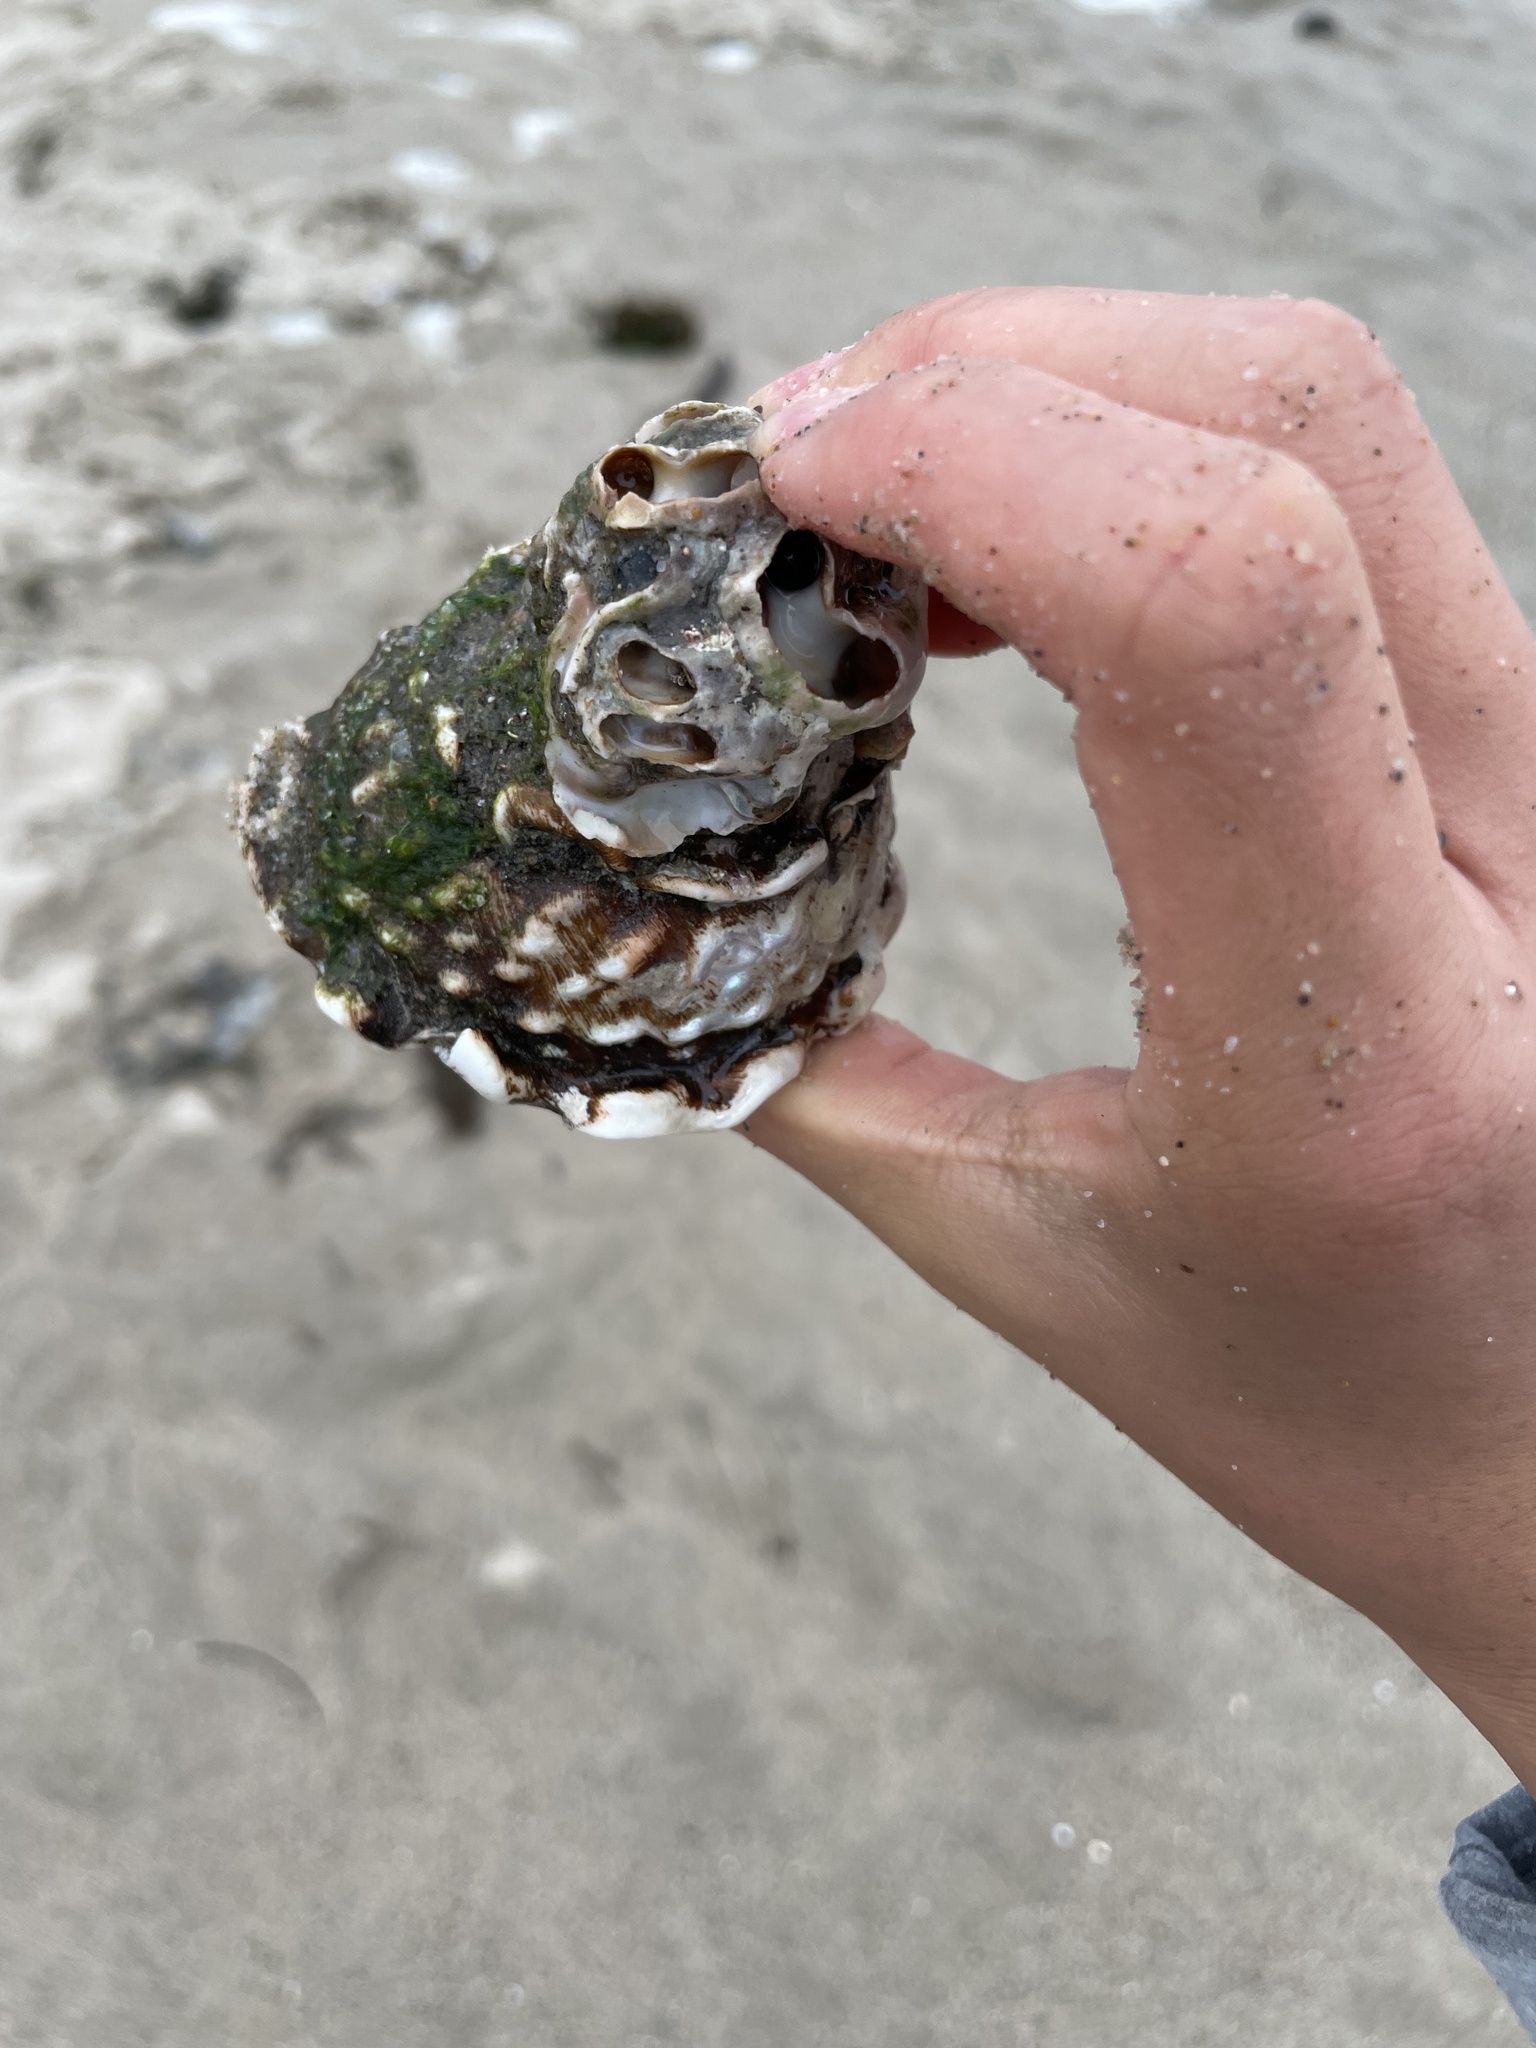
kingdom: Animalia
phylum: Mollusca
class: Gastropoda
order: Trochida
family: Turbinidae
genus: Megastraea
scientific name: Megastraea undosa
